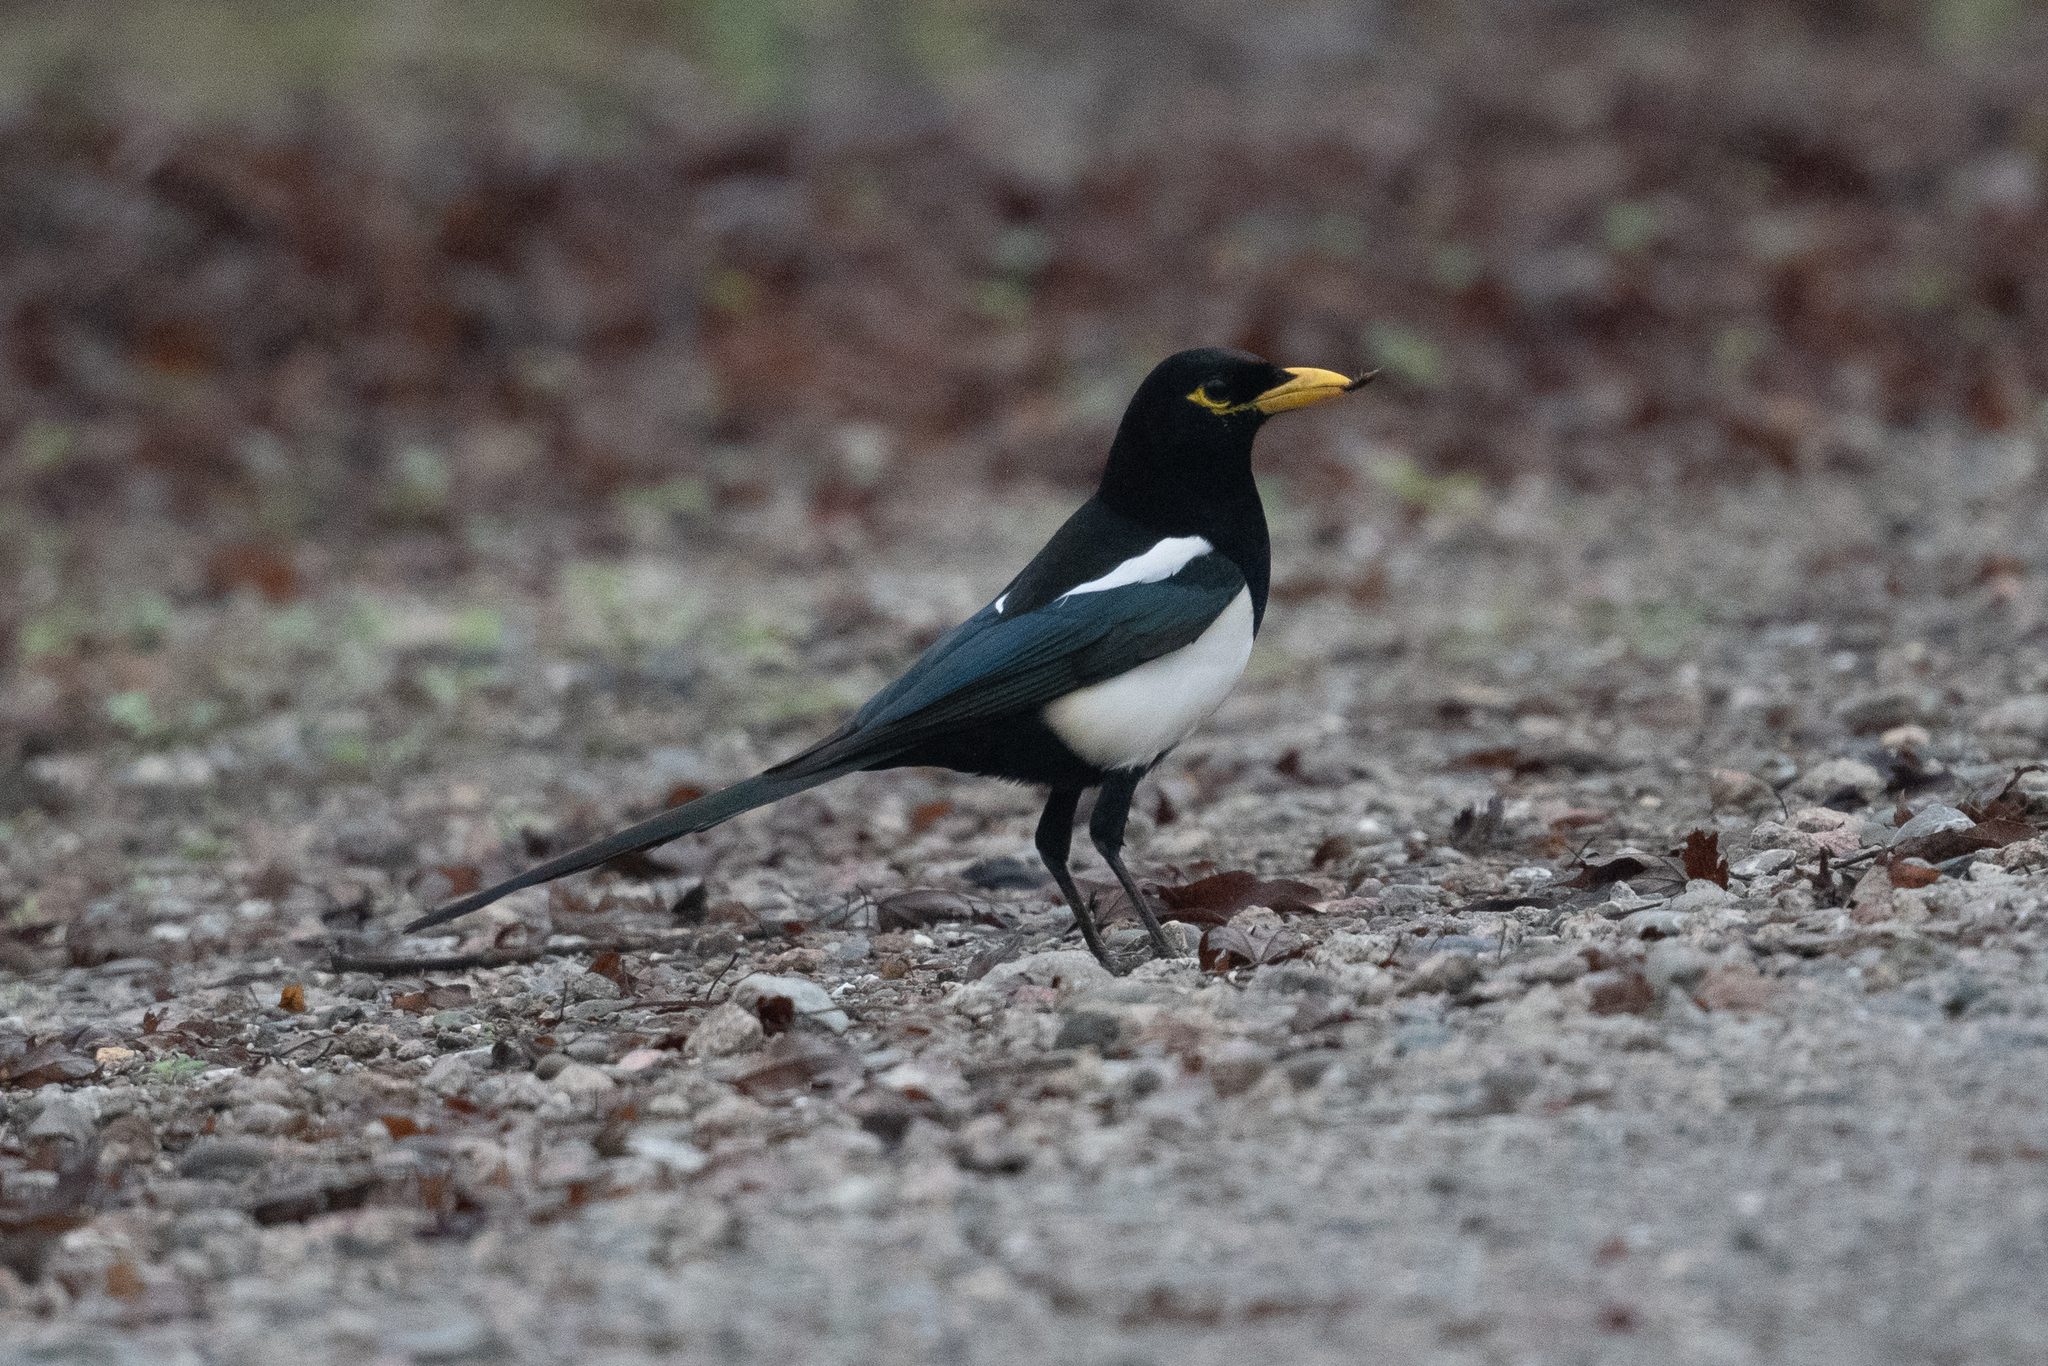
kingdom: Animalia
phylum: Chordata
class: Aves
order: Passeriformes
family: Corvidae
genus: Pica
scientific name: Pica nuttalli
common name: Yellow-billed magpie
